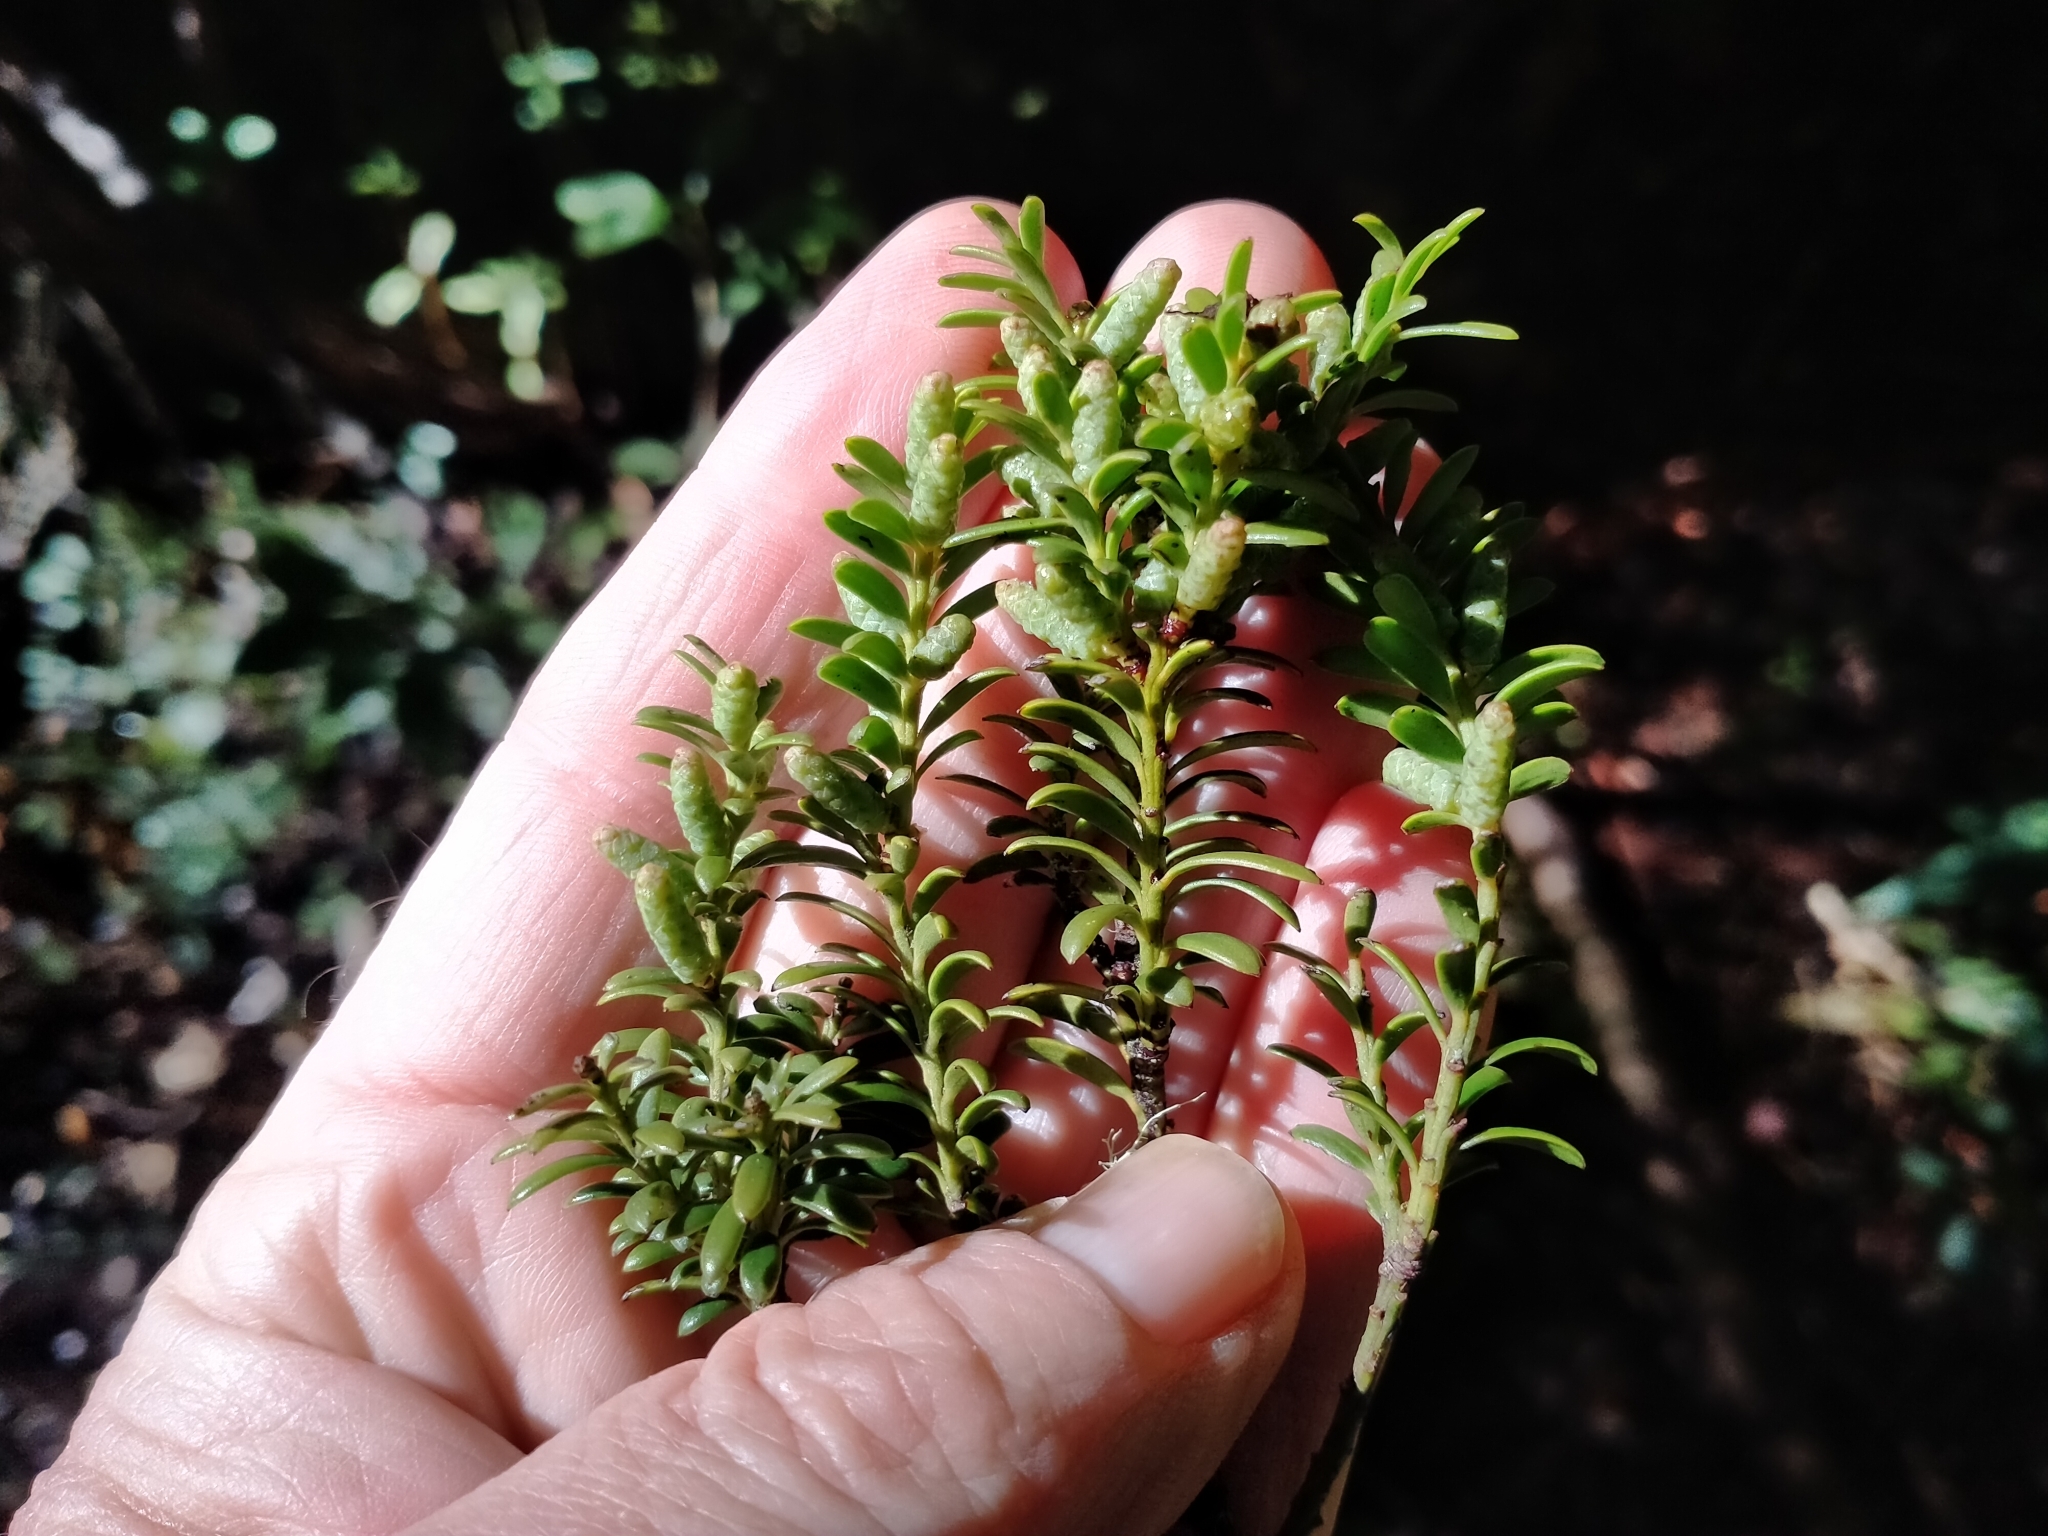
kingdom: Plantae
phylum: Tracheophyta
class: Pinopsida
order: Pinales
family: Podocarpaceae
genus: Prumnopitys
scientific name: Prumnopitys ferruginea
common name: Brown pine
